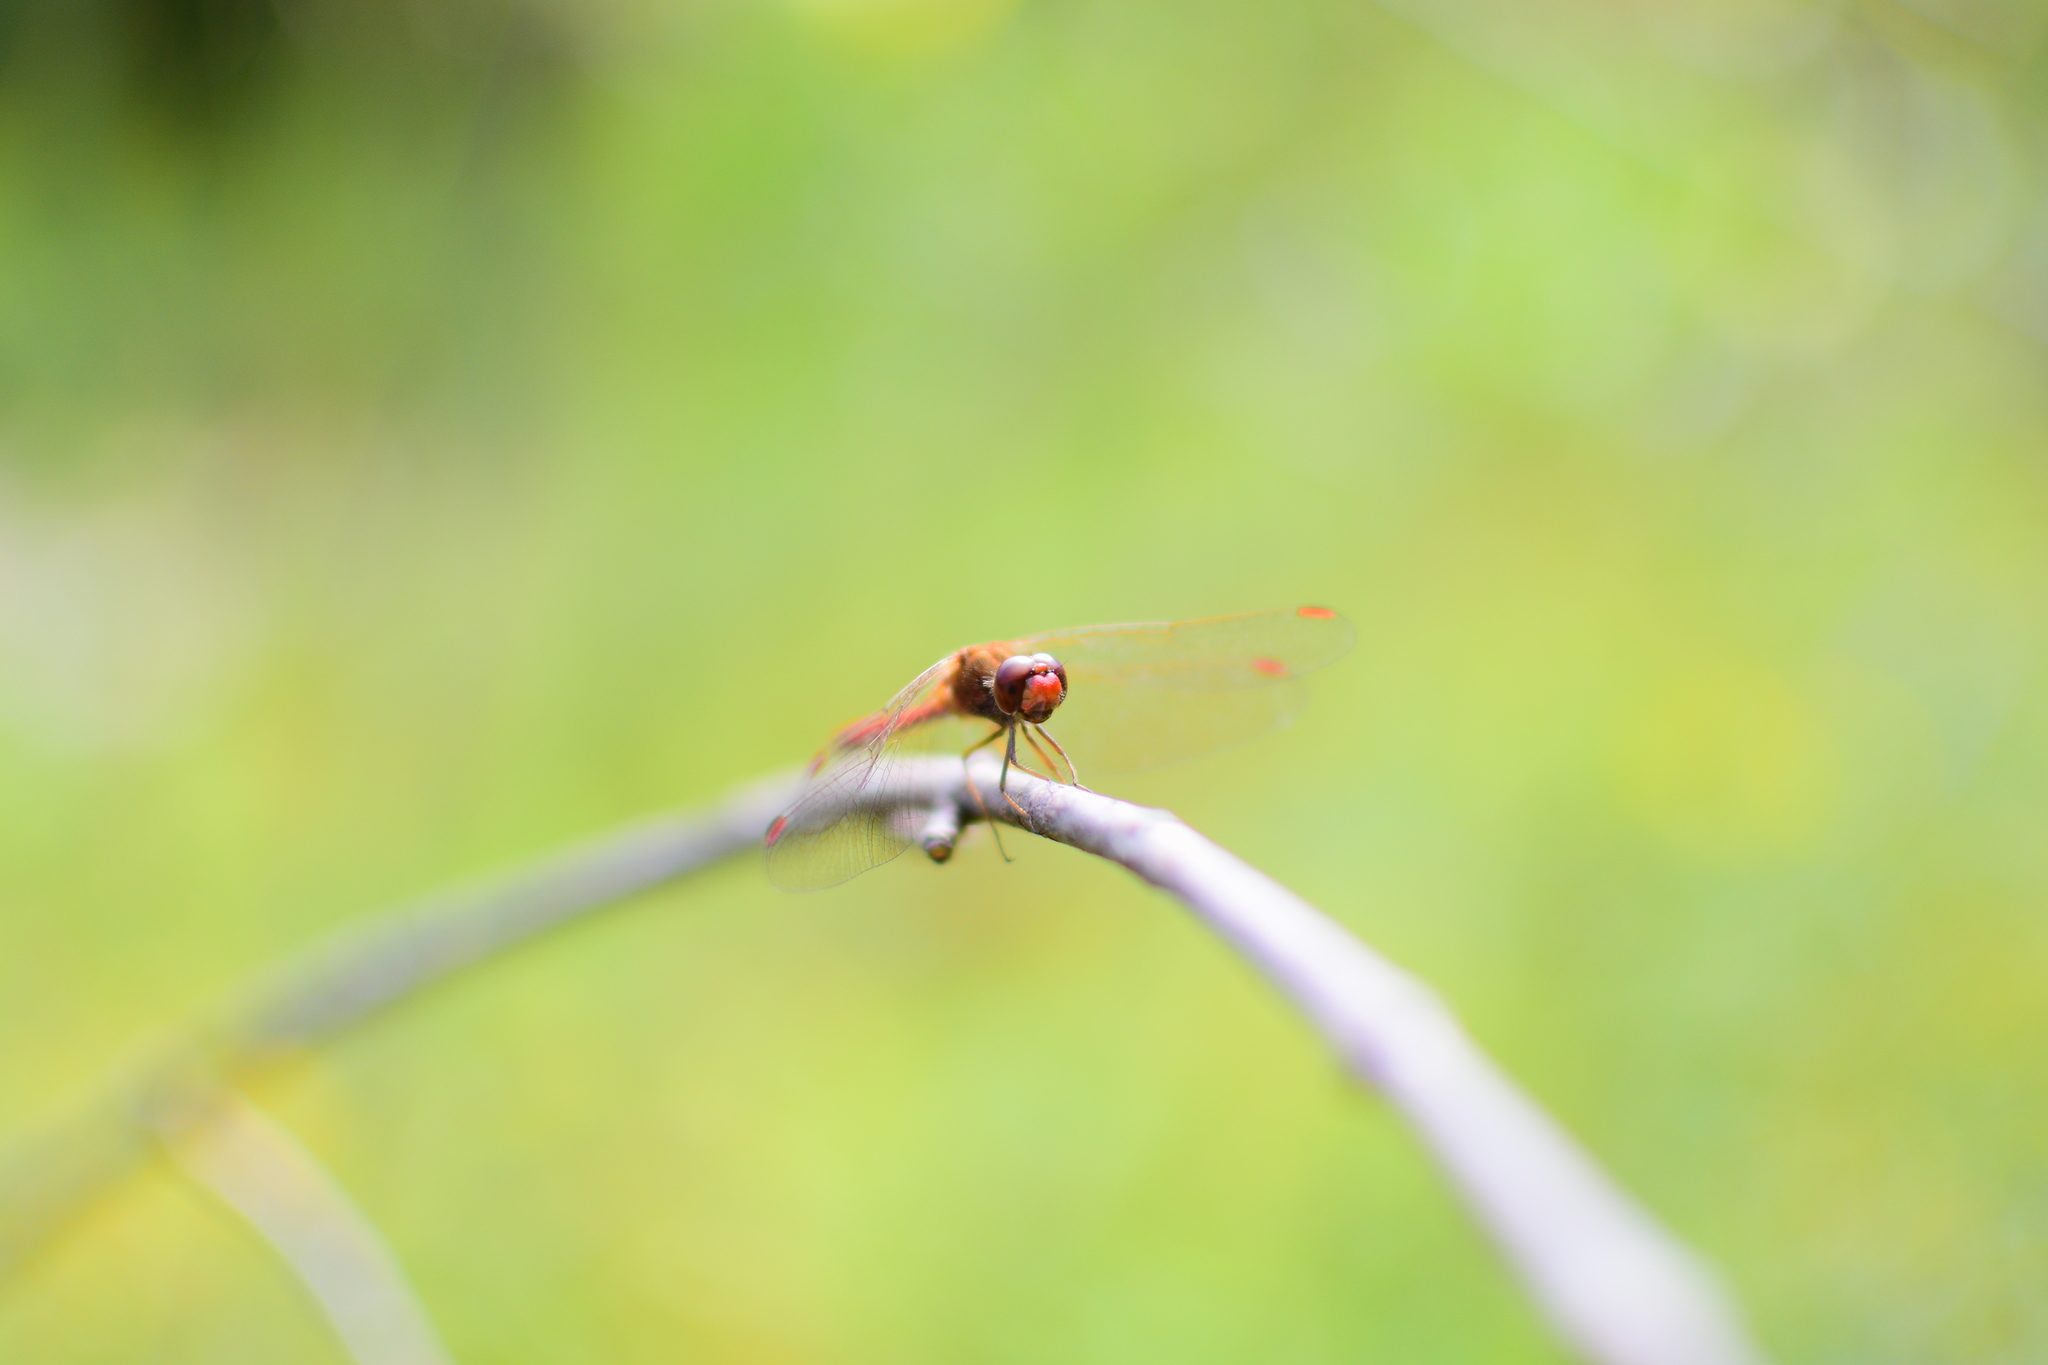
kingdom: Animalia
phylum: Arthropoda
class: Insecta
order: Odonata
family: Libellulidae
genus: Sympetrum
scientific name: Sympetrum vicinum
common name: Autumn meadowhawk
